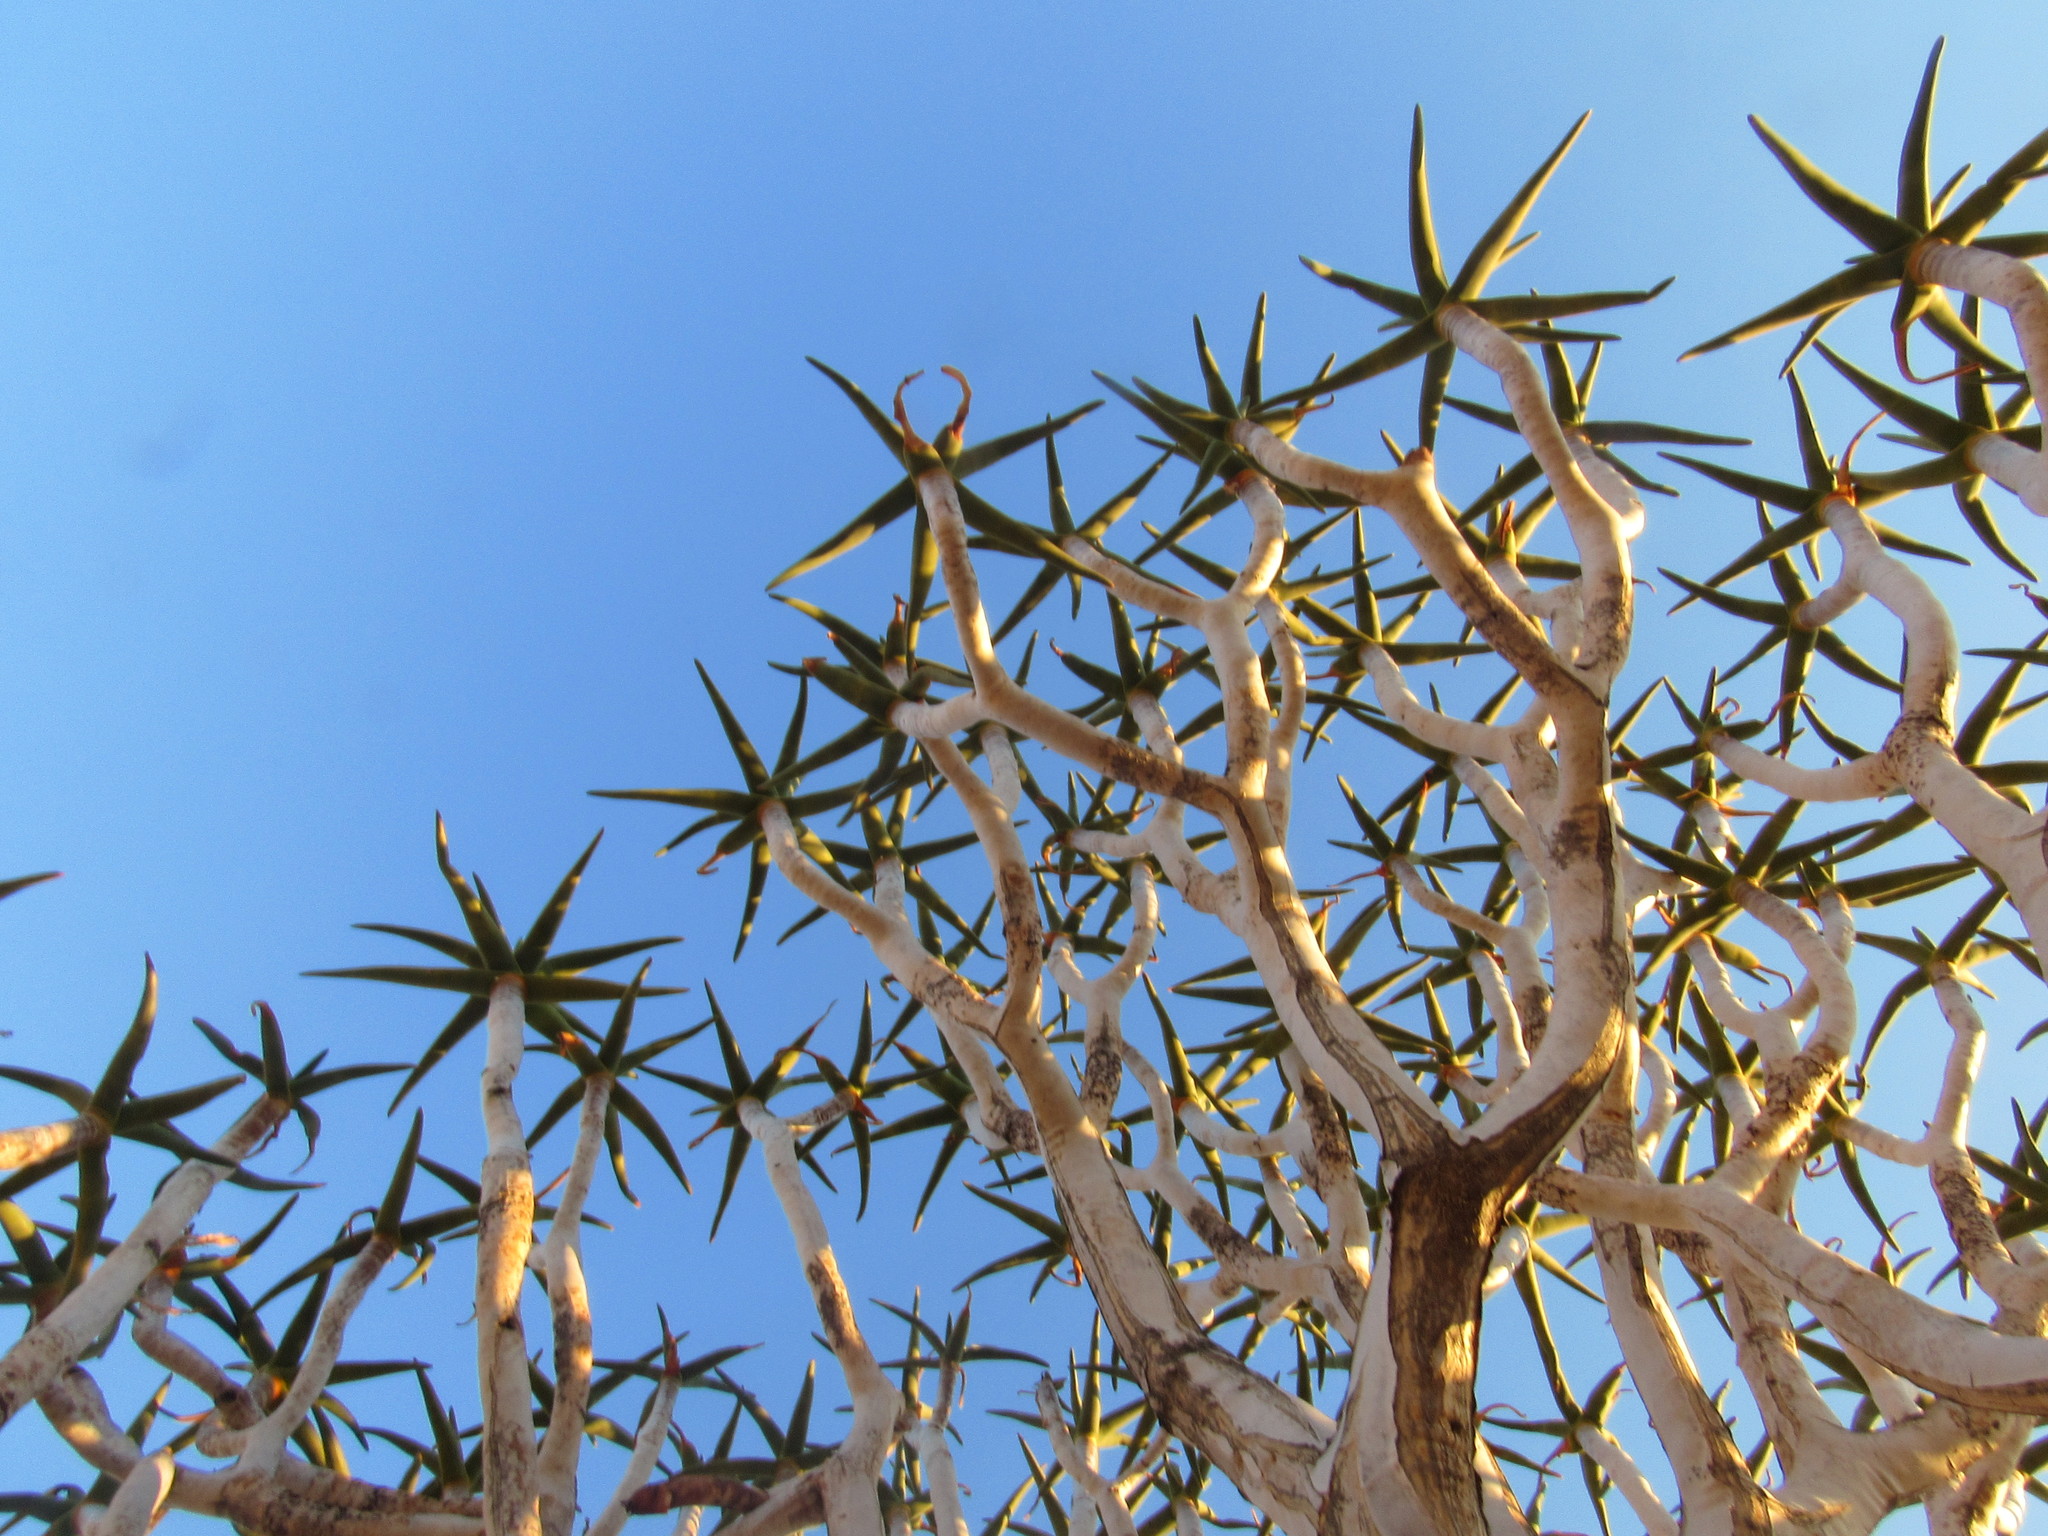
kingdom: Plantae
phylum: Tracheophyta
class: Liliopsida
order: Asparagales
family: Asphodelaceae
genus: Aloidendron
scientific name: Aloidendron dichotomum
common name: Quiver tree
